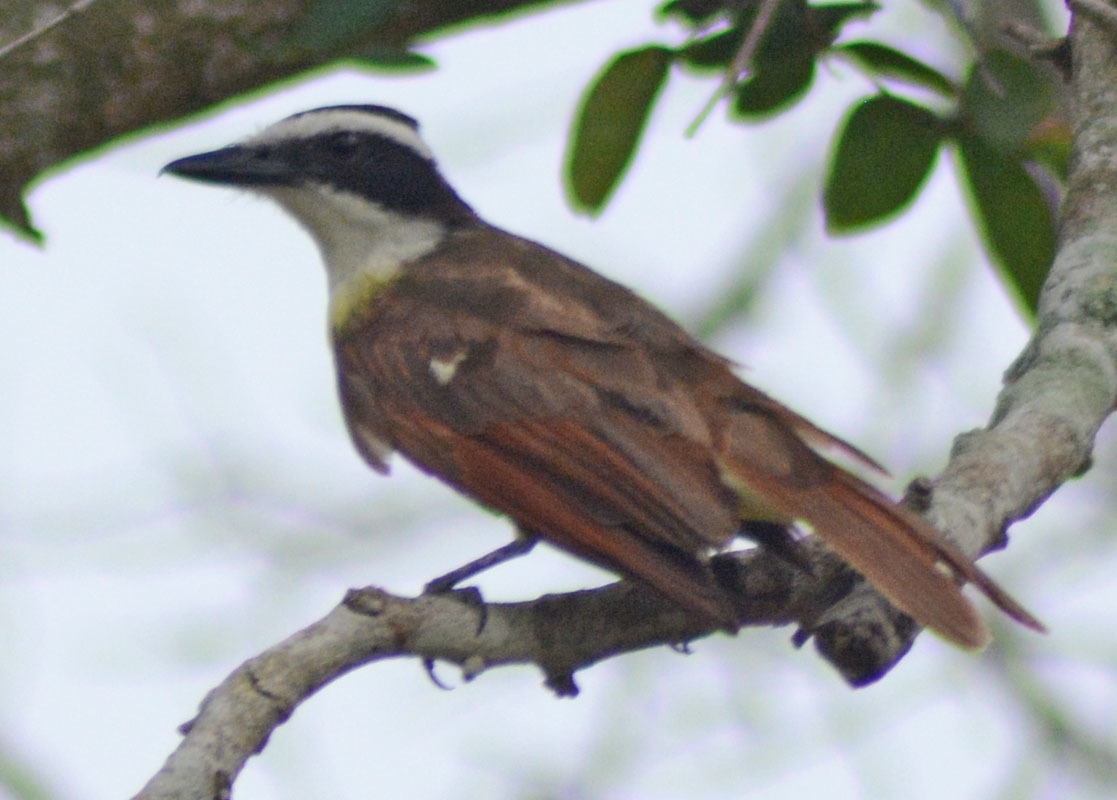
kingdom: Animalia
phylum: Chordata
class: Aves
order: Passeriformes
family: Tyrannidae
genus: Pitangus
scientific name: Pitangus sulphuratus
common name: Great kiskadee
